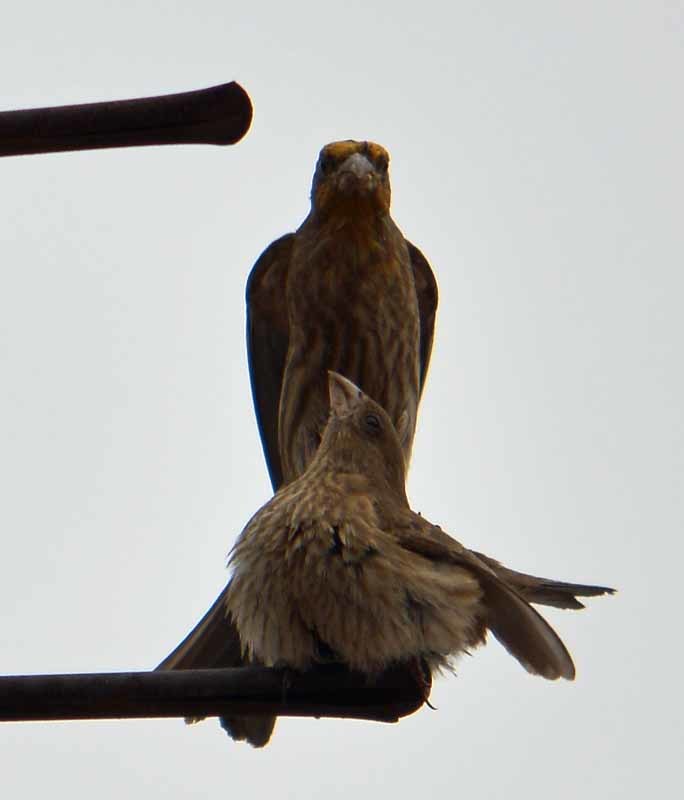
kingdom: Animalia
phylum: Chordata
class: Aves
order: Passeriformes
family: Fringillidae
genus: Haemorhous
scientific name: Haemorhous mexicanus
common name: House finch
